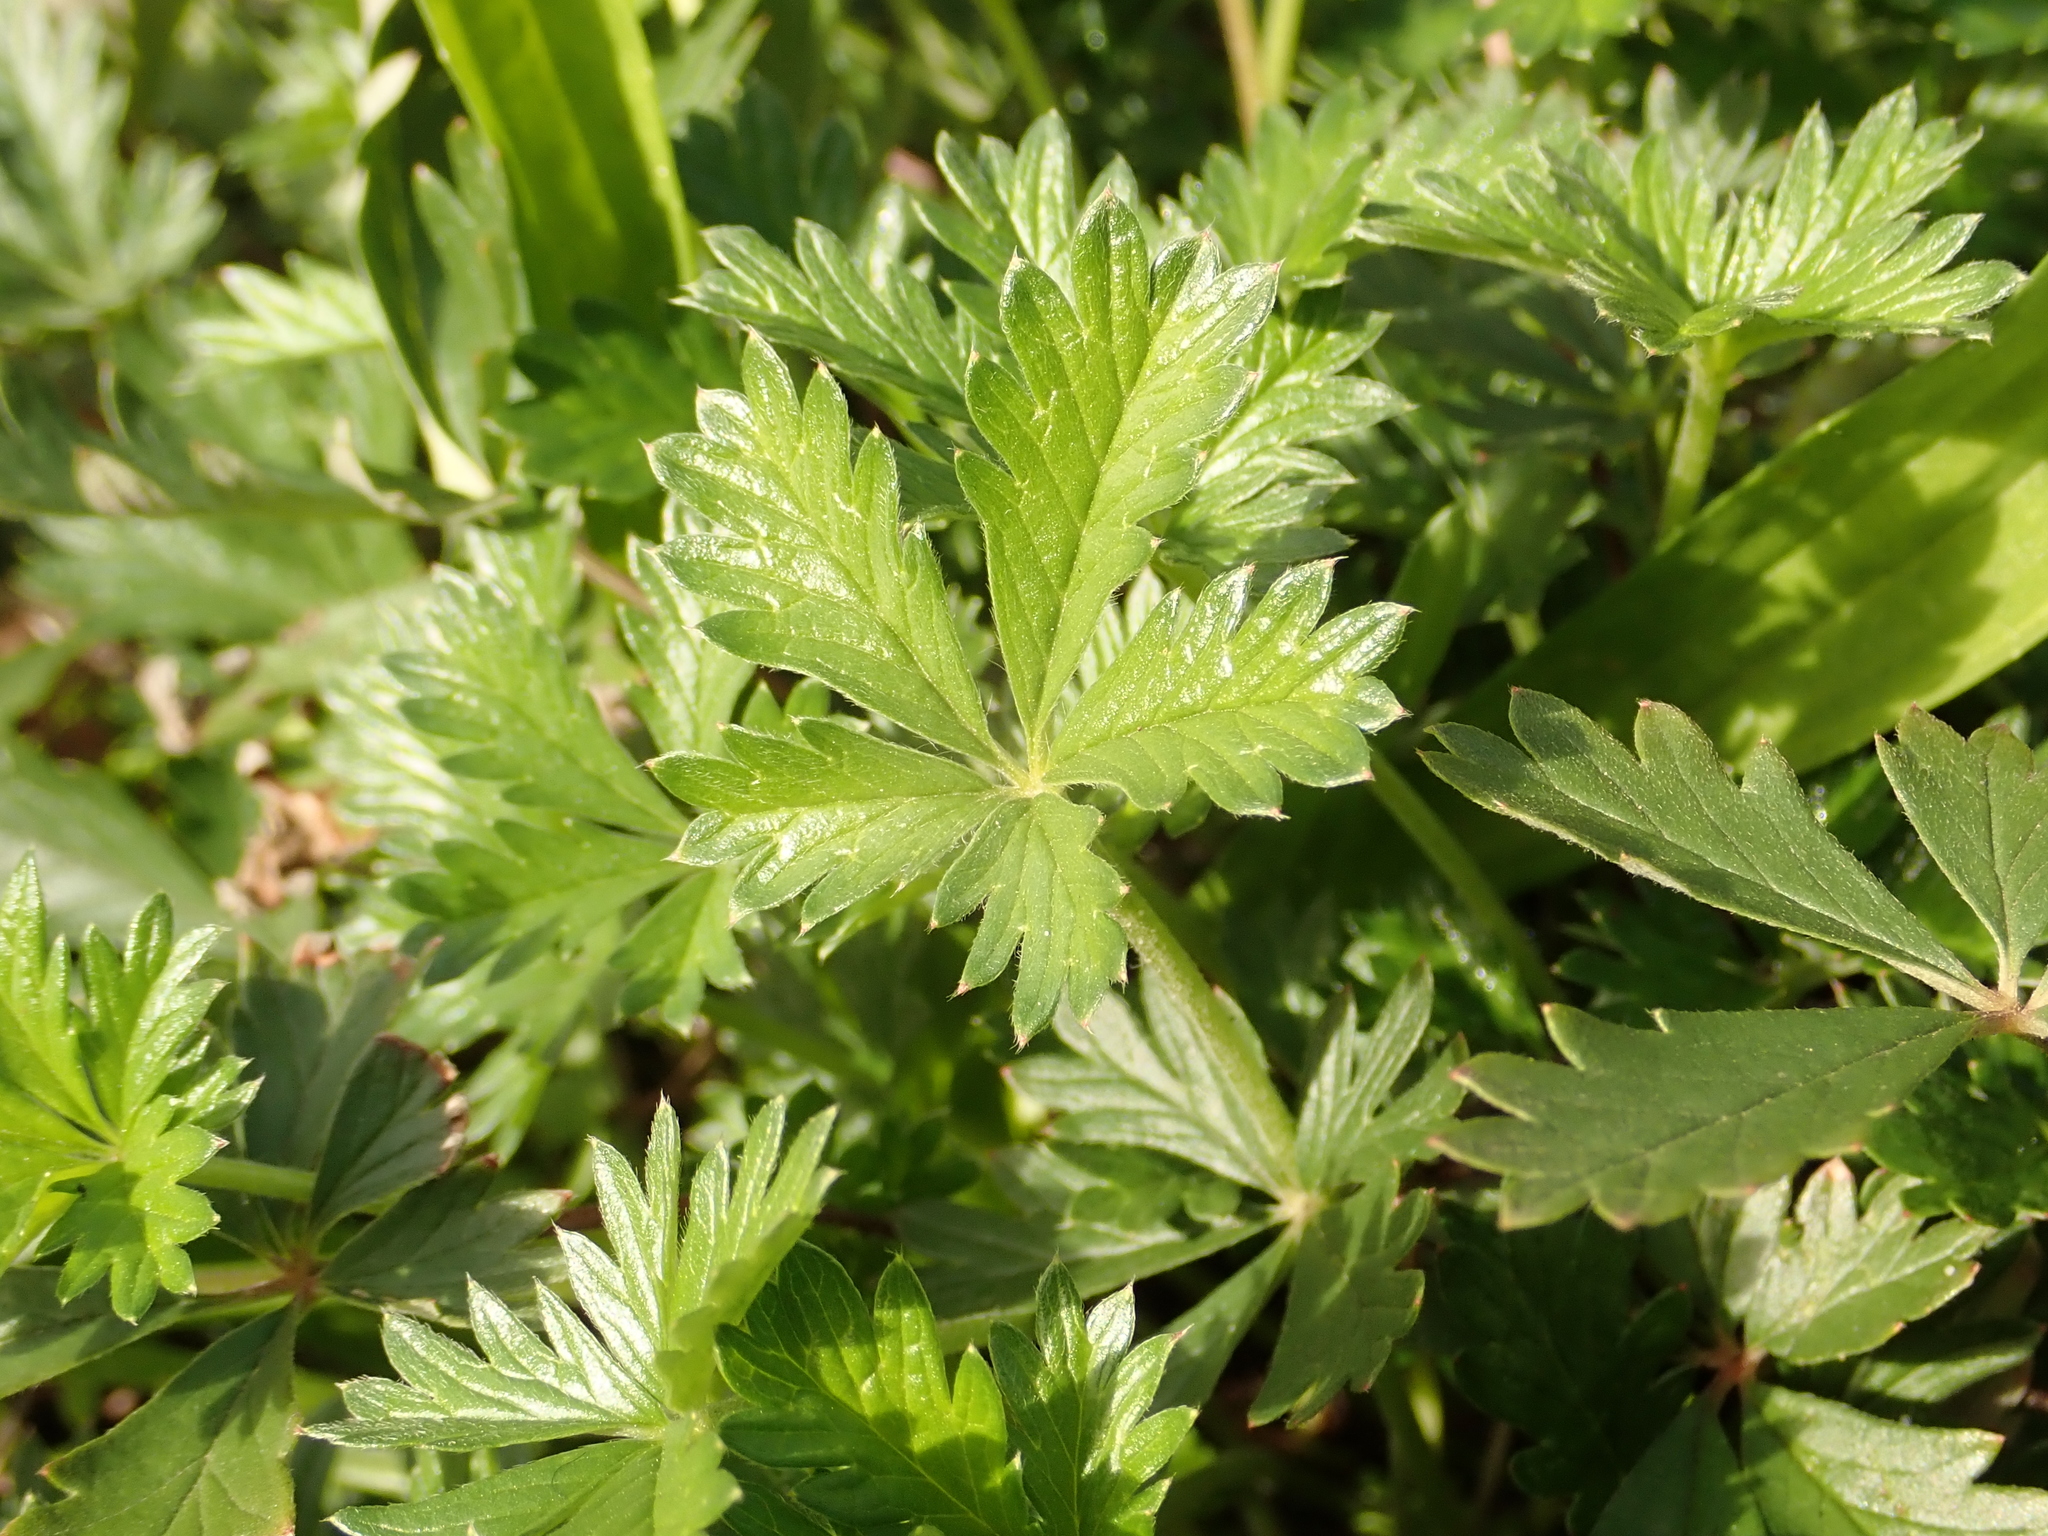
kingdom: Plantae
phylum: Tracheophyta
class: Magnoliopsida
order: Rosales
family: Rosaceae
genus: Potentilla
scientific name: Potentilla argentea
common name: Hoary cinquefoil
